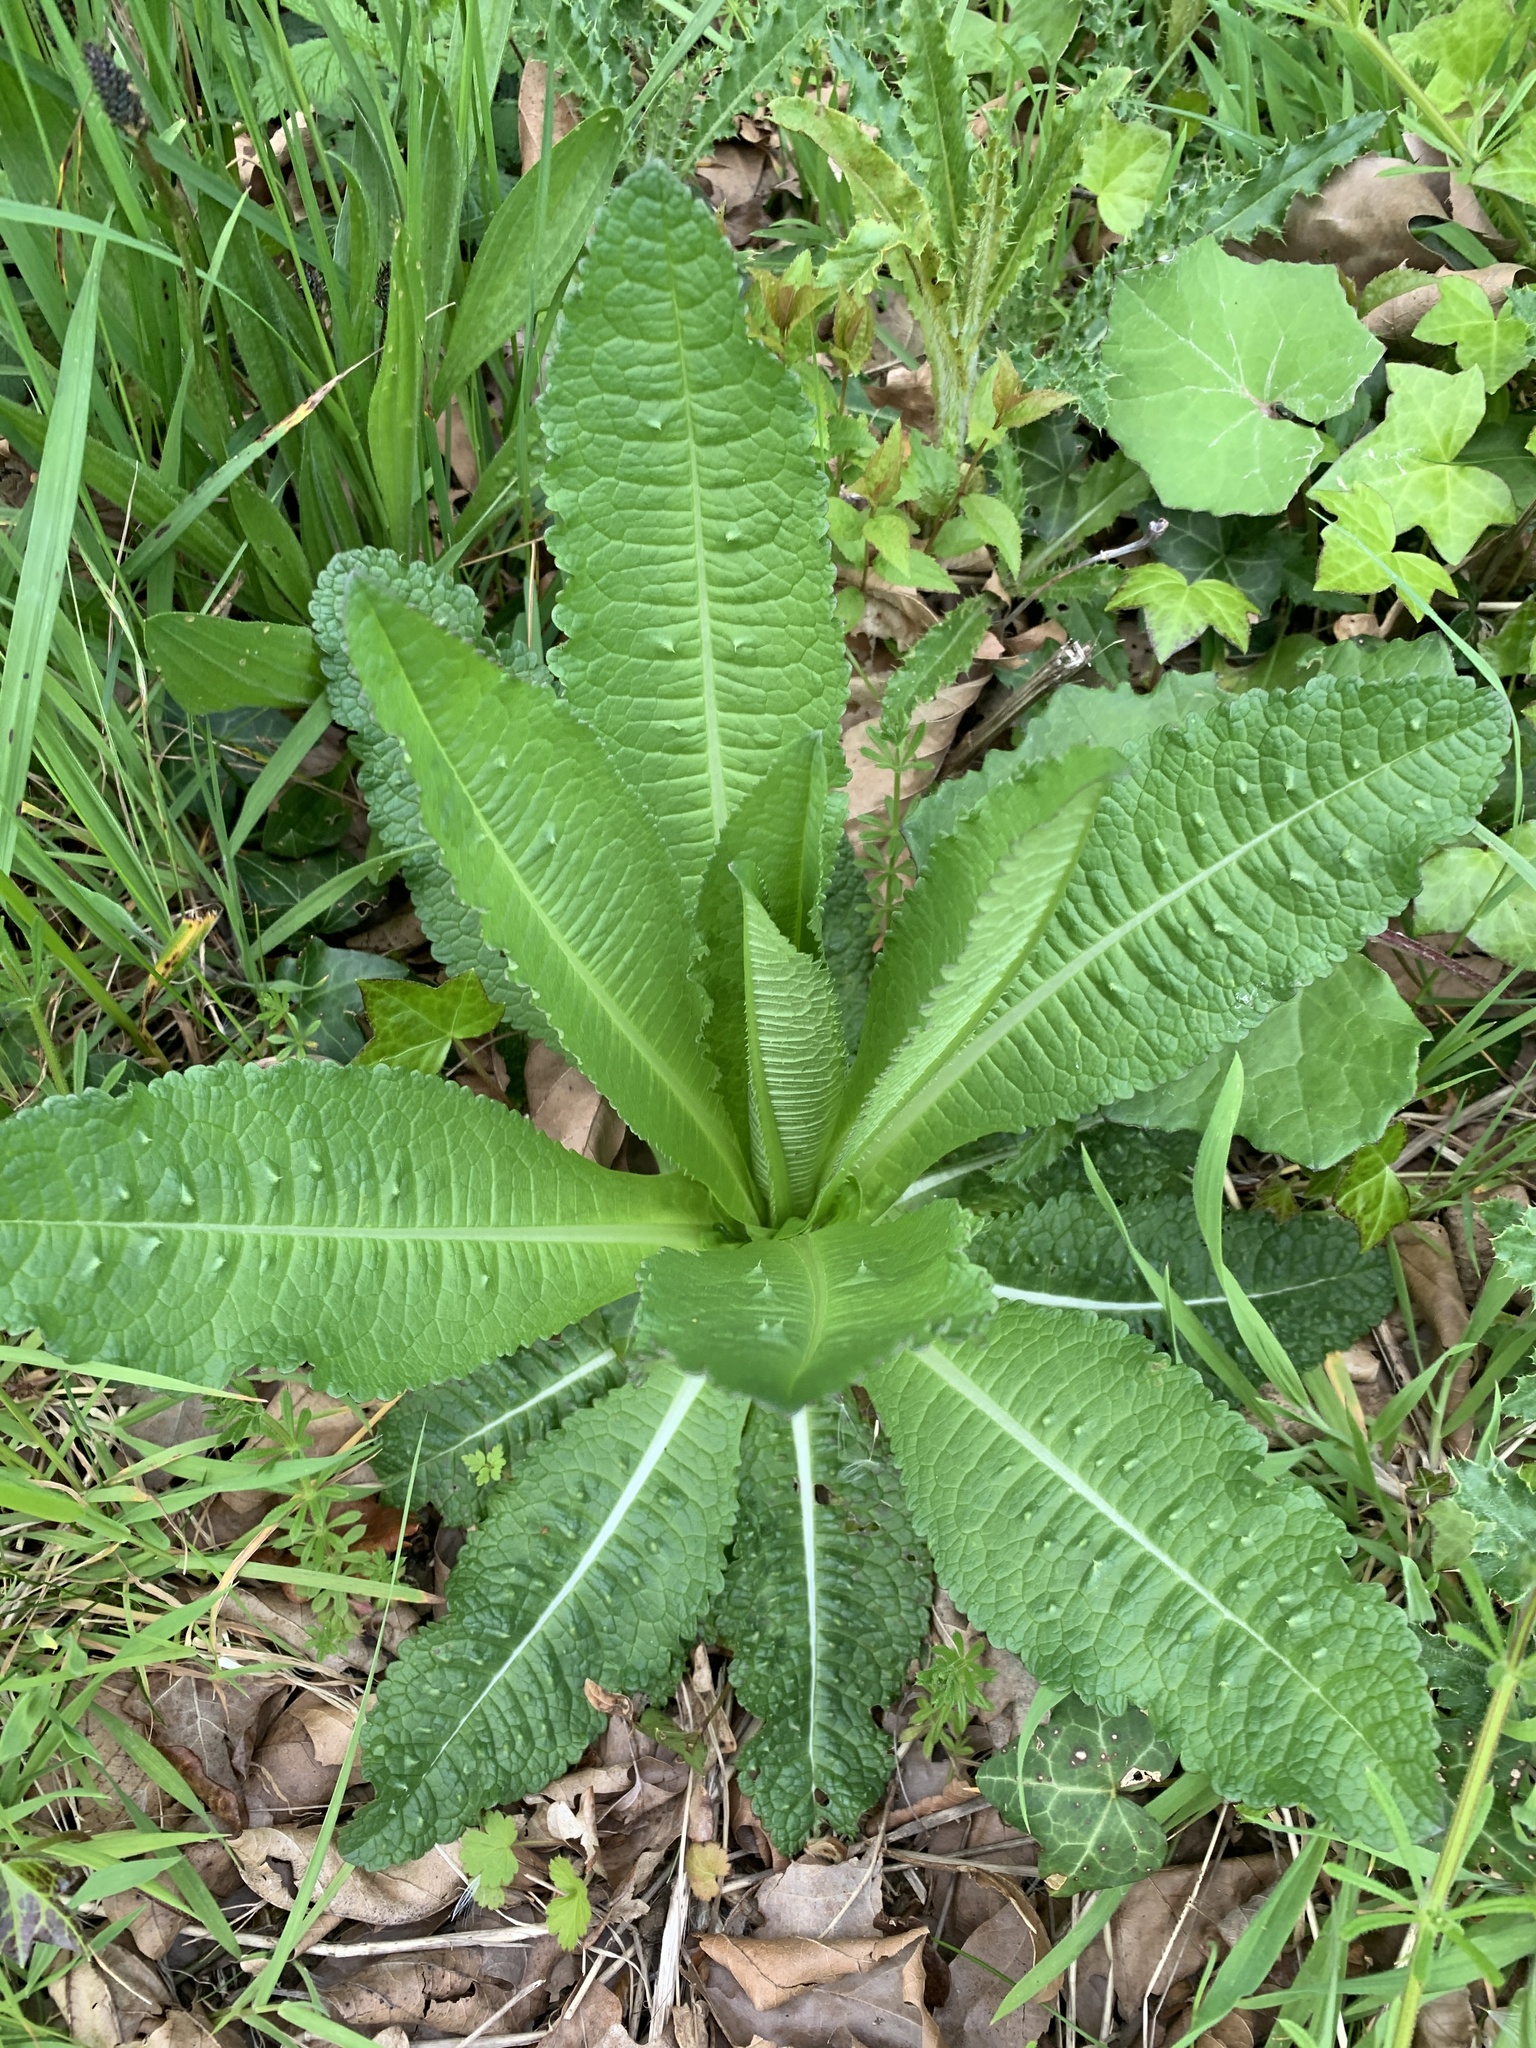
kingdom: Plantae
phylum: Tracheophyta
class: Magnoliopsida
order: Dipsacales
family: Caprifoliaceae
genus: Dipsacus
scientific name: Dipsacus fullonum
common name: Teasel
